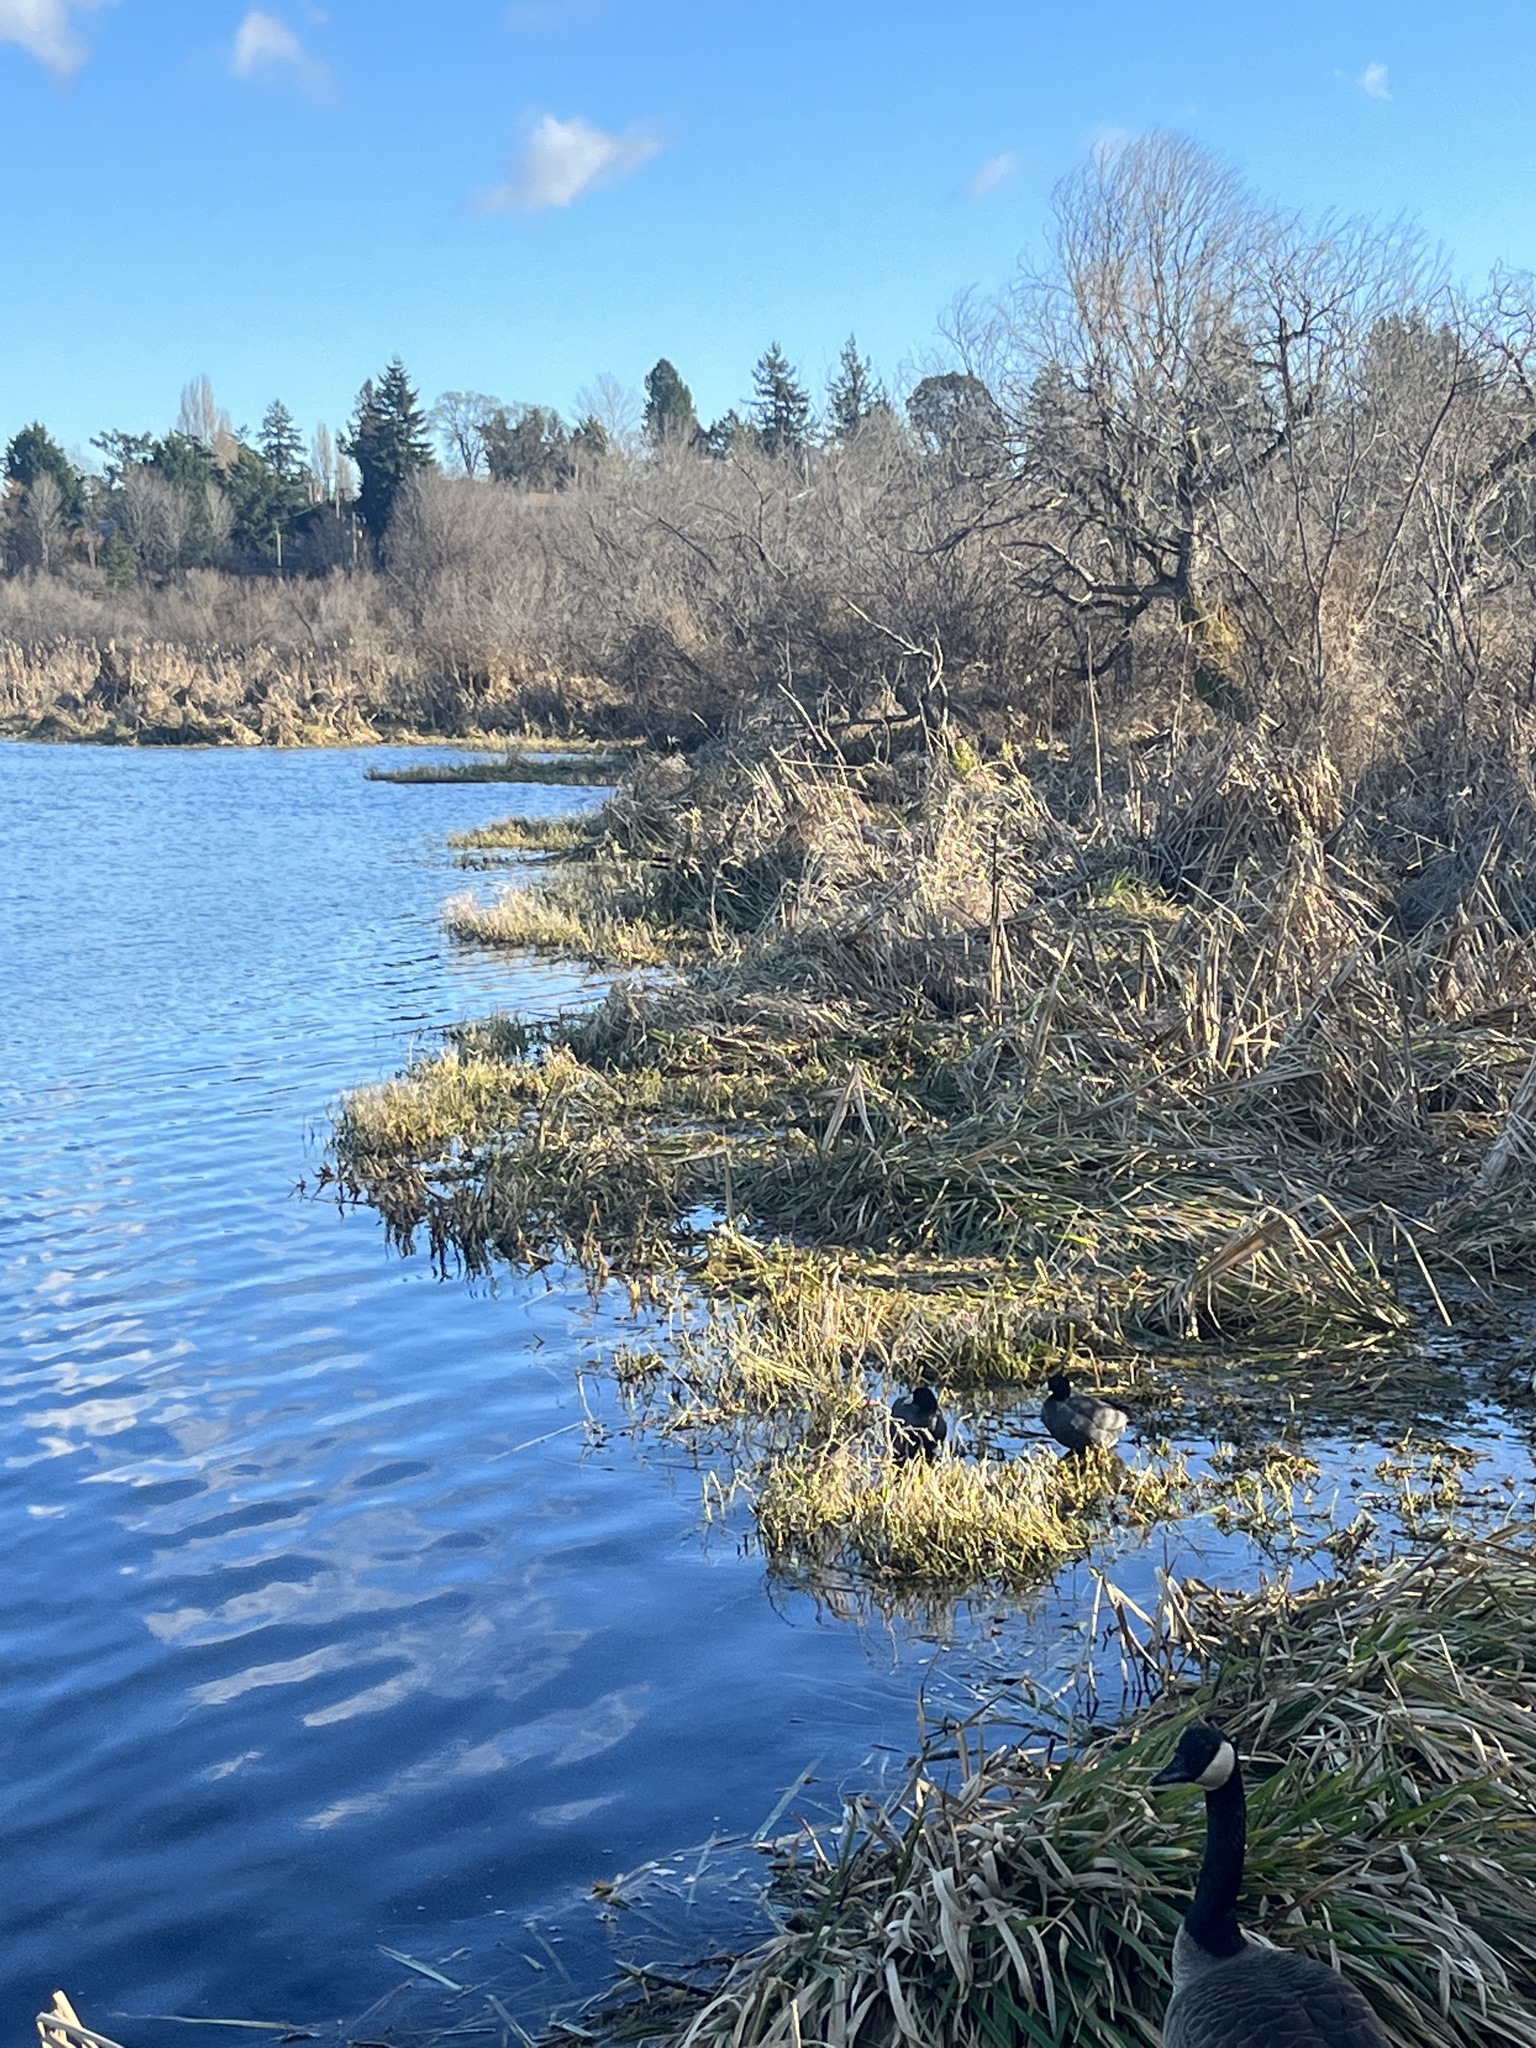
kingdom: Animalia
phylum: Chordata
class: Aves
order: Gruiformes
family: Rallidae
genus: Fulica
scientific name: Fulica americana
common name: American coot
